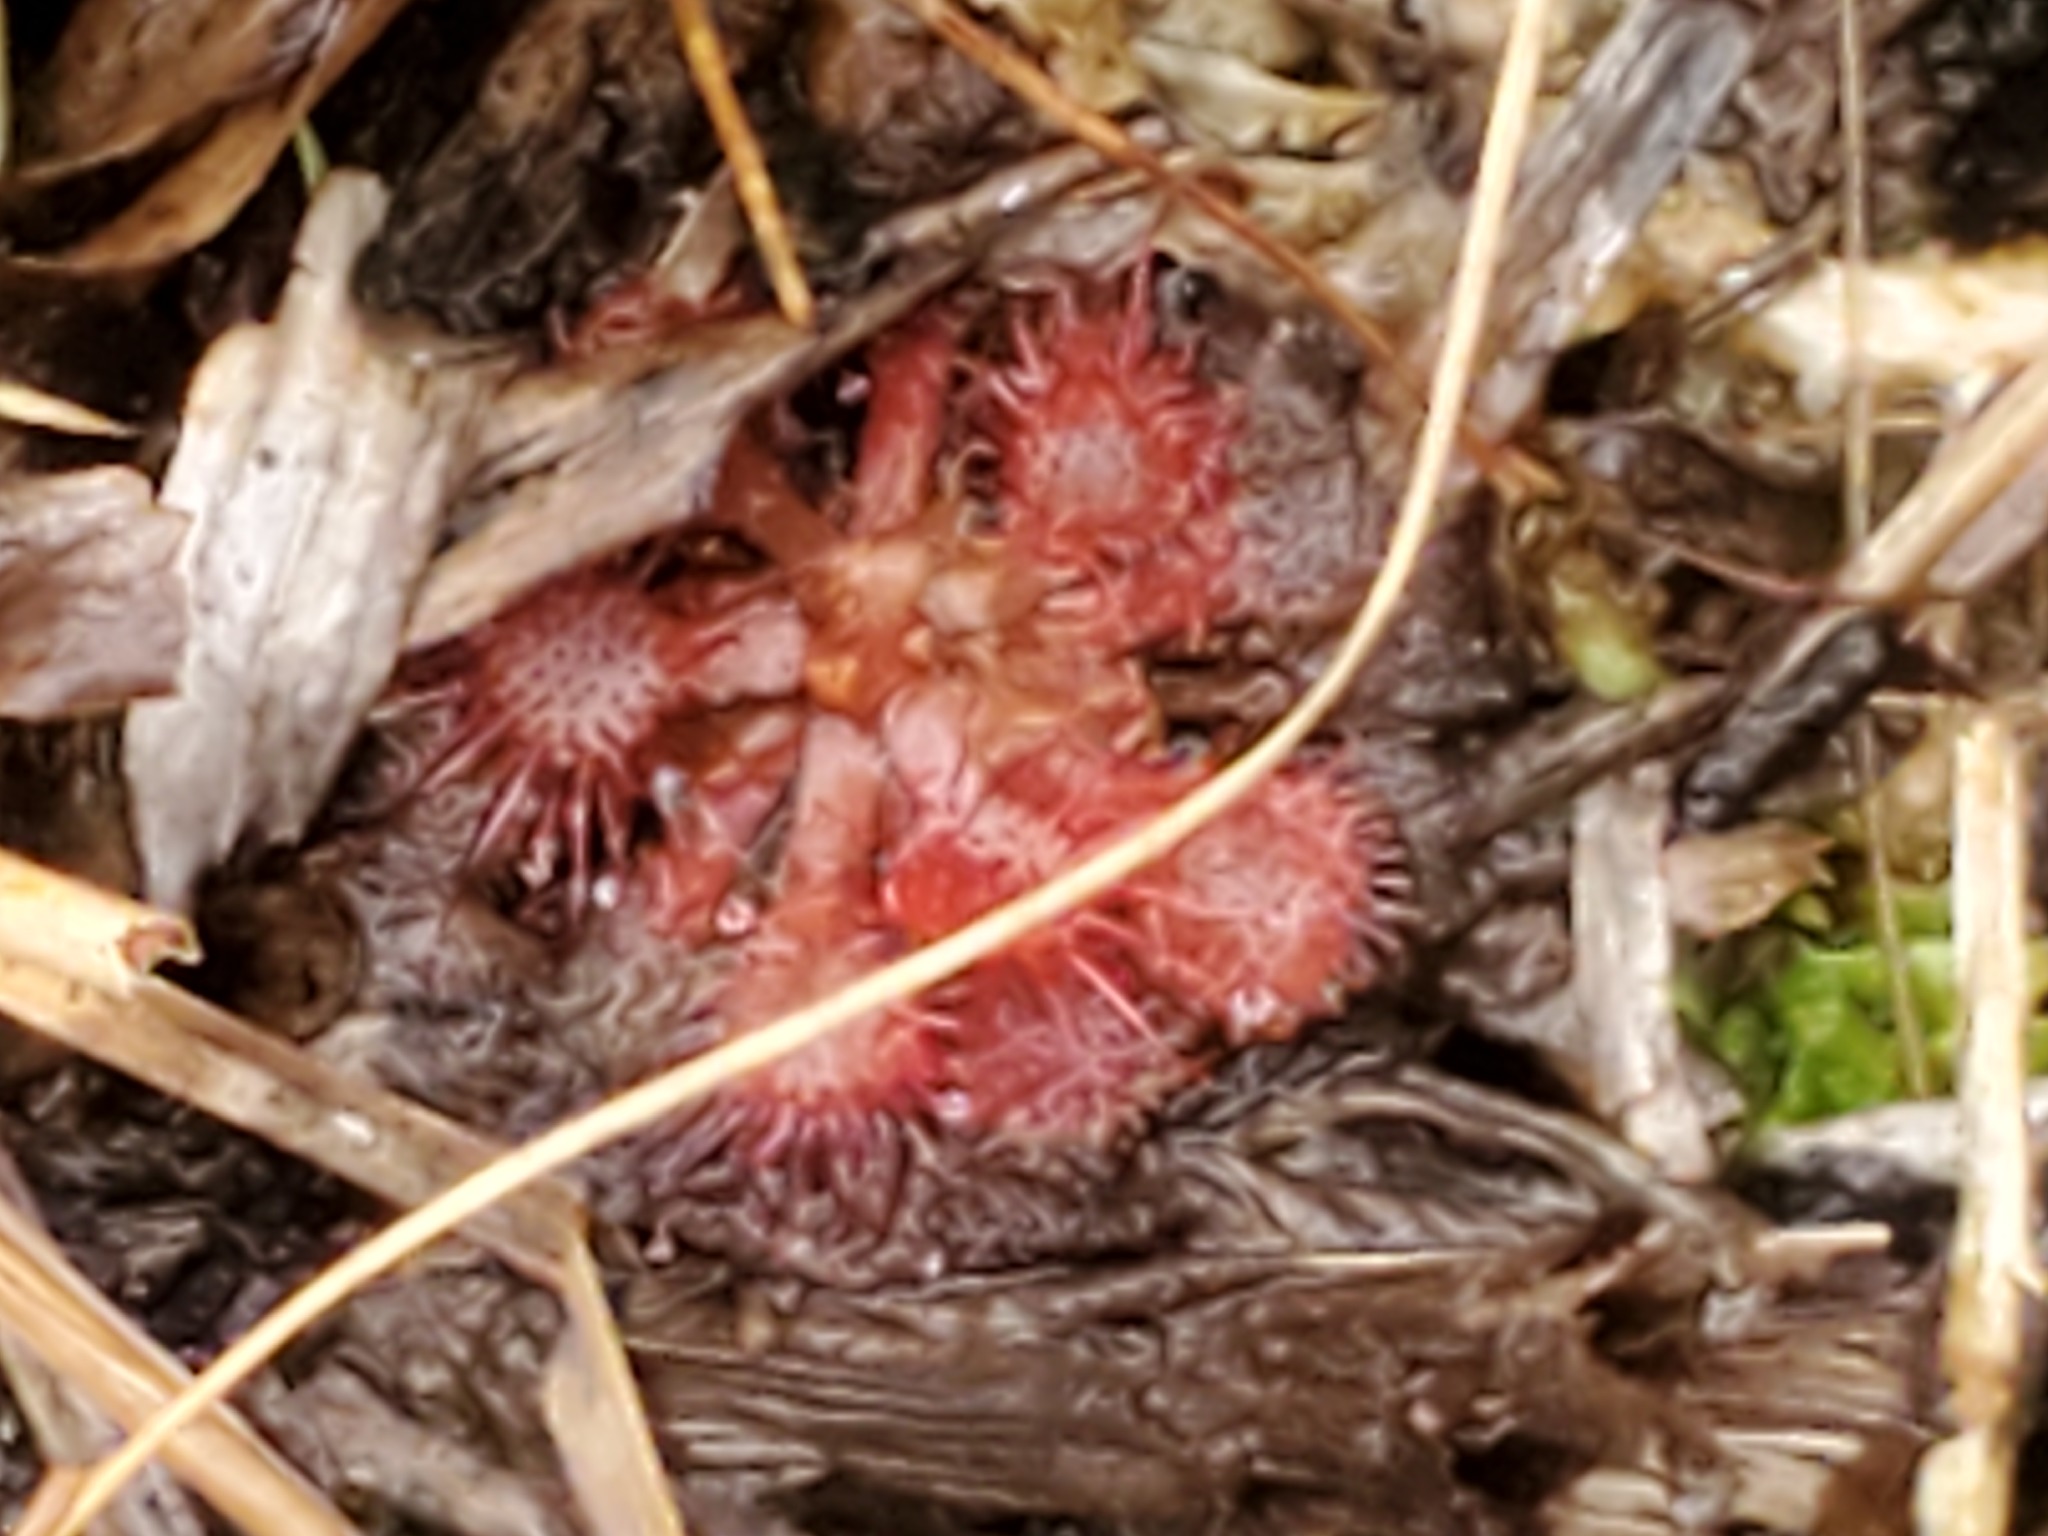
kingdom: Plantae
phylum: Tracheophyta
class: Magnoliopsida
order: Caryophyllales
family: Droseraceae
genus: Drosera
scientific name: Drosera capillaris
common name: Pink sundew
